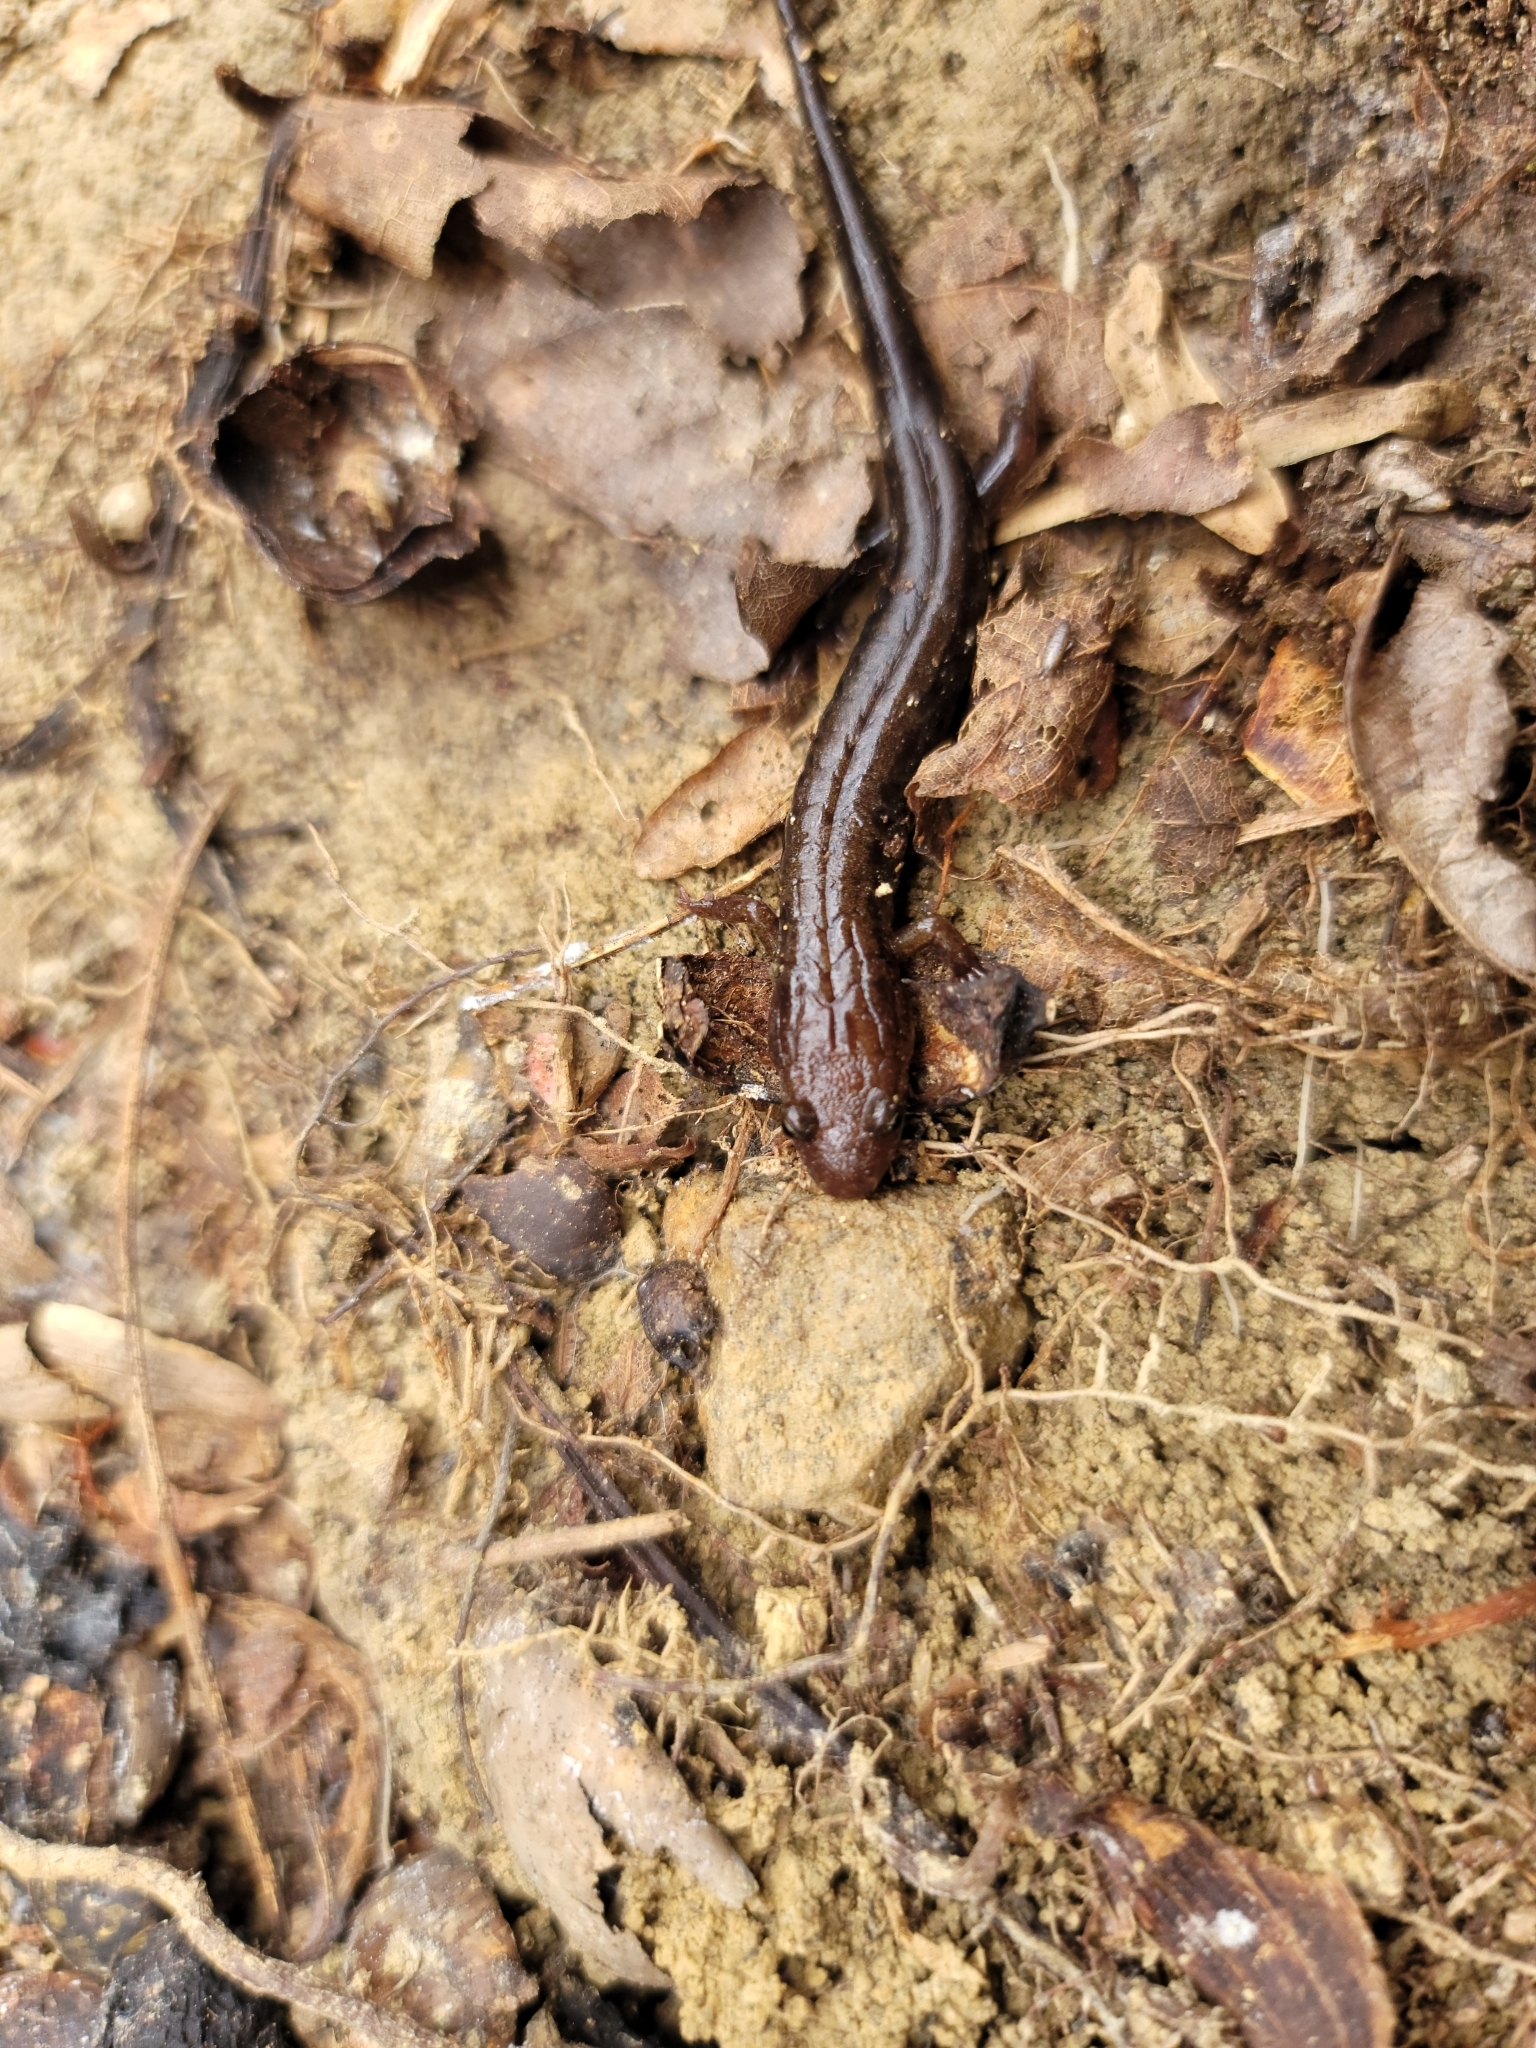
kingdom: Animalia
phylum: Chordata
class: Amphibia
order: Caudata
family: Plethodontidae
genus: Desmognathus
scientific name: Desmognathus ochrophaeus
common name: Allegheny mountain dusky salamander
